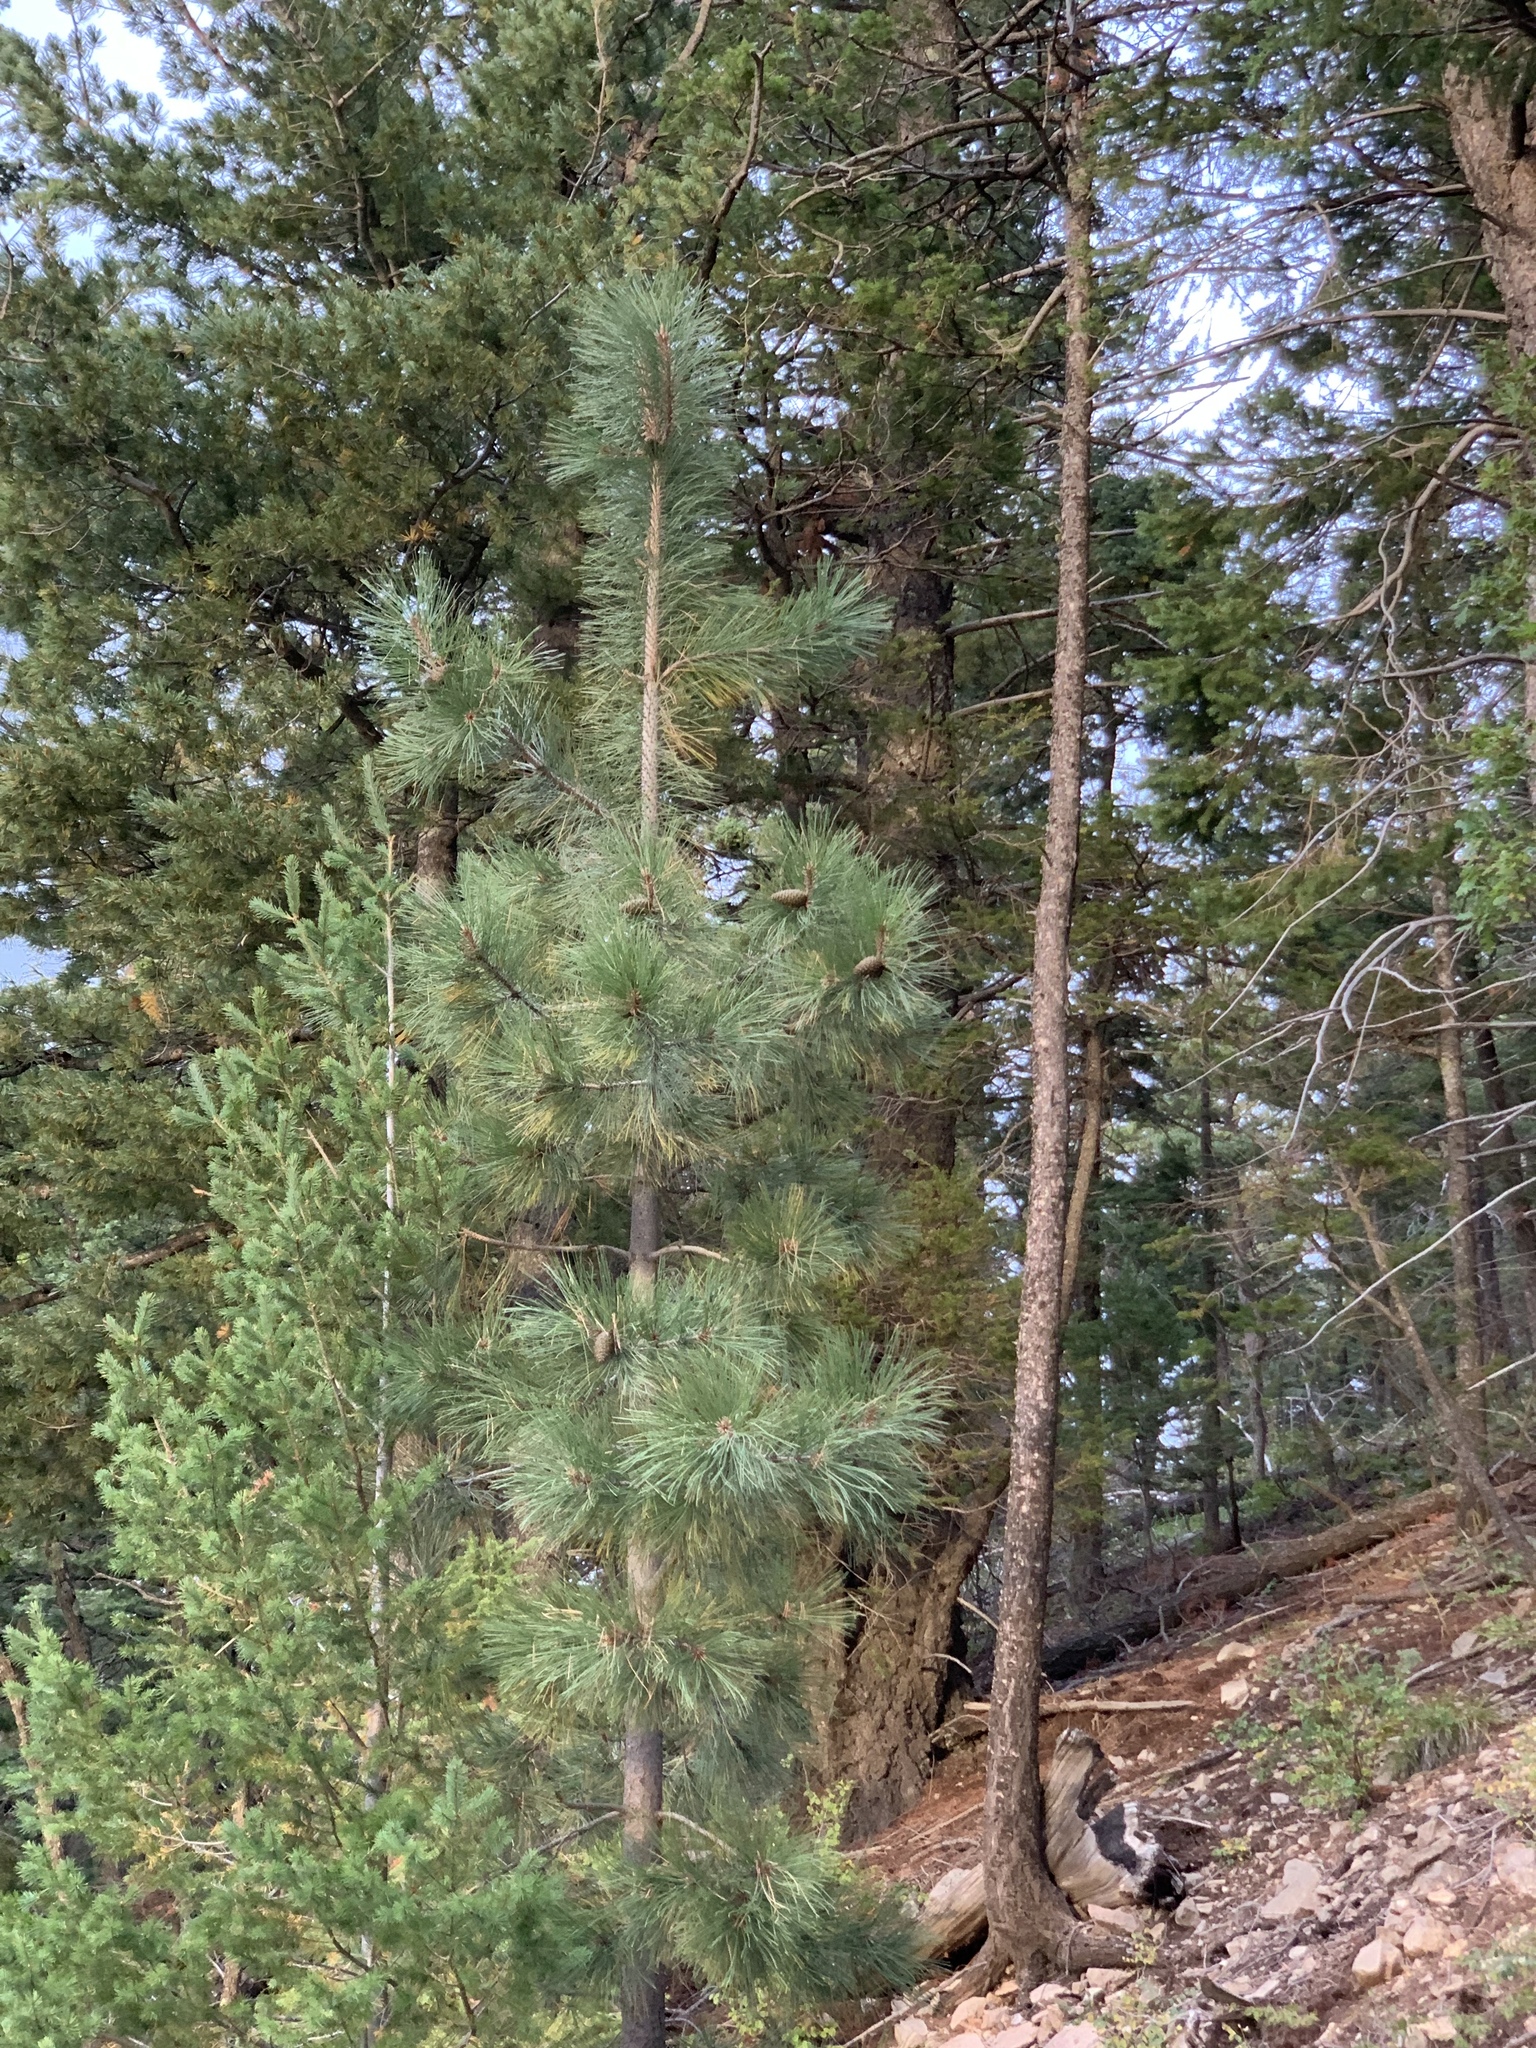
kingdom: Plantae
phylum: Tracheophyta
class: Pinopsida
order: Pinales
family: Pinaceae
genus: Pinus
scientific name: Pinus ponderosa
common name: Western yellow-pine
